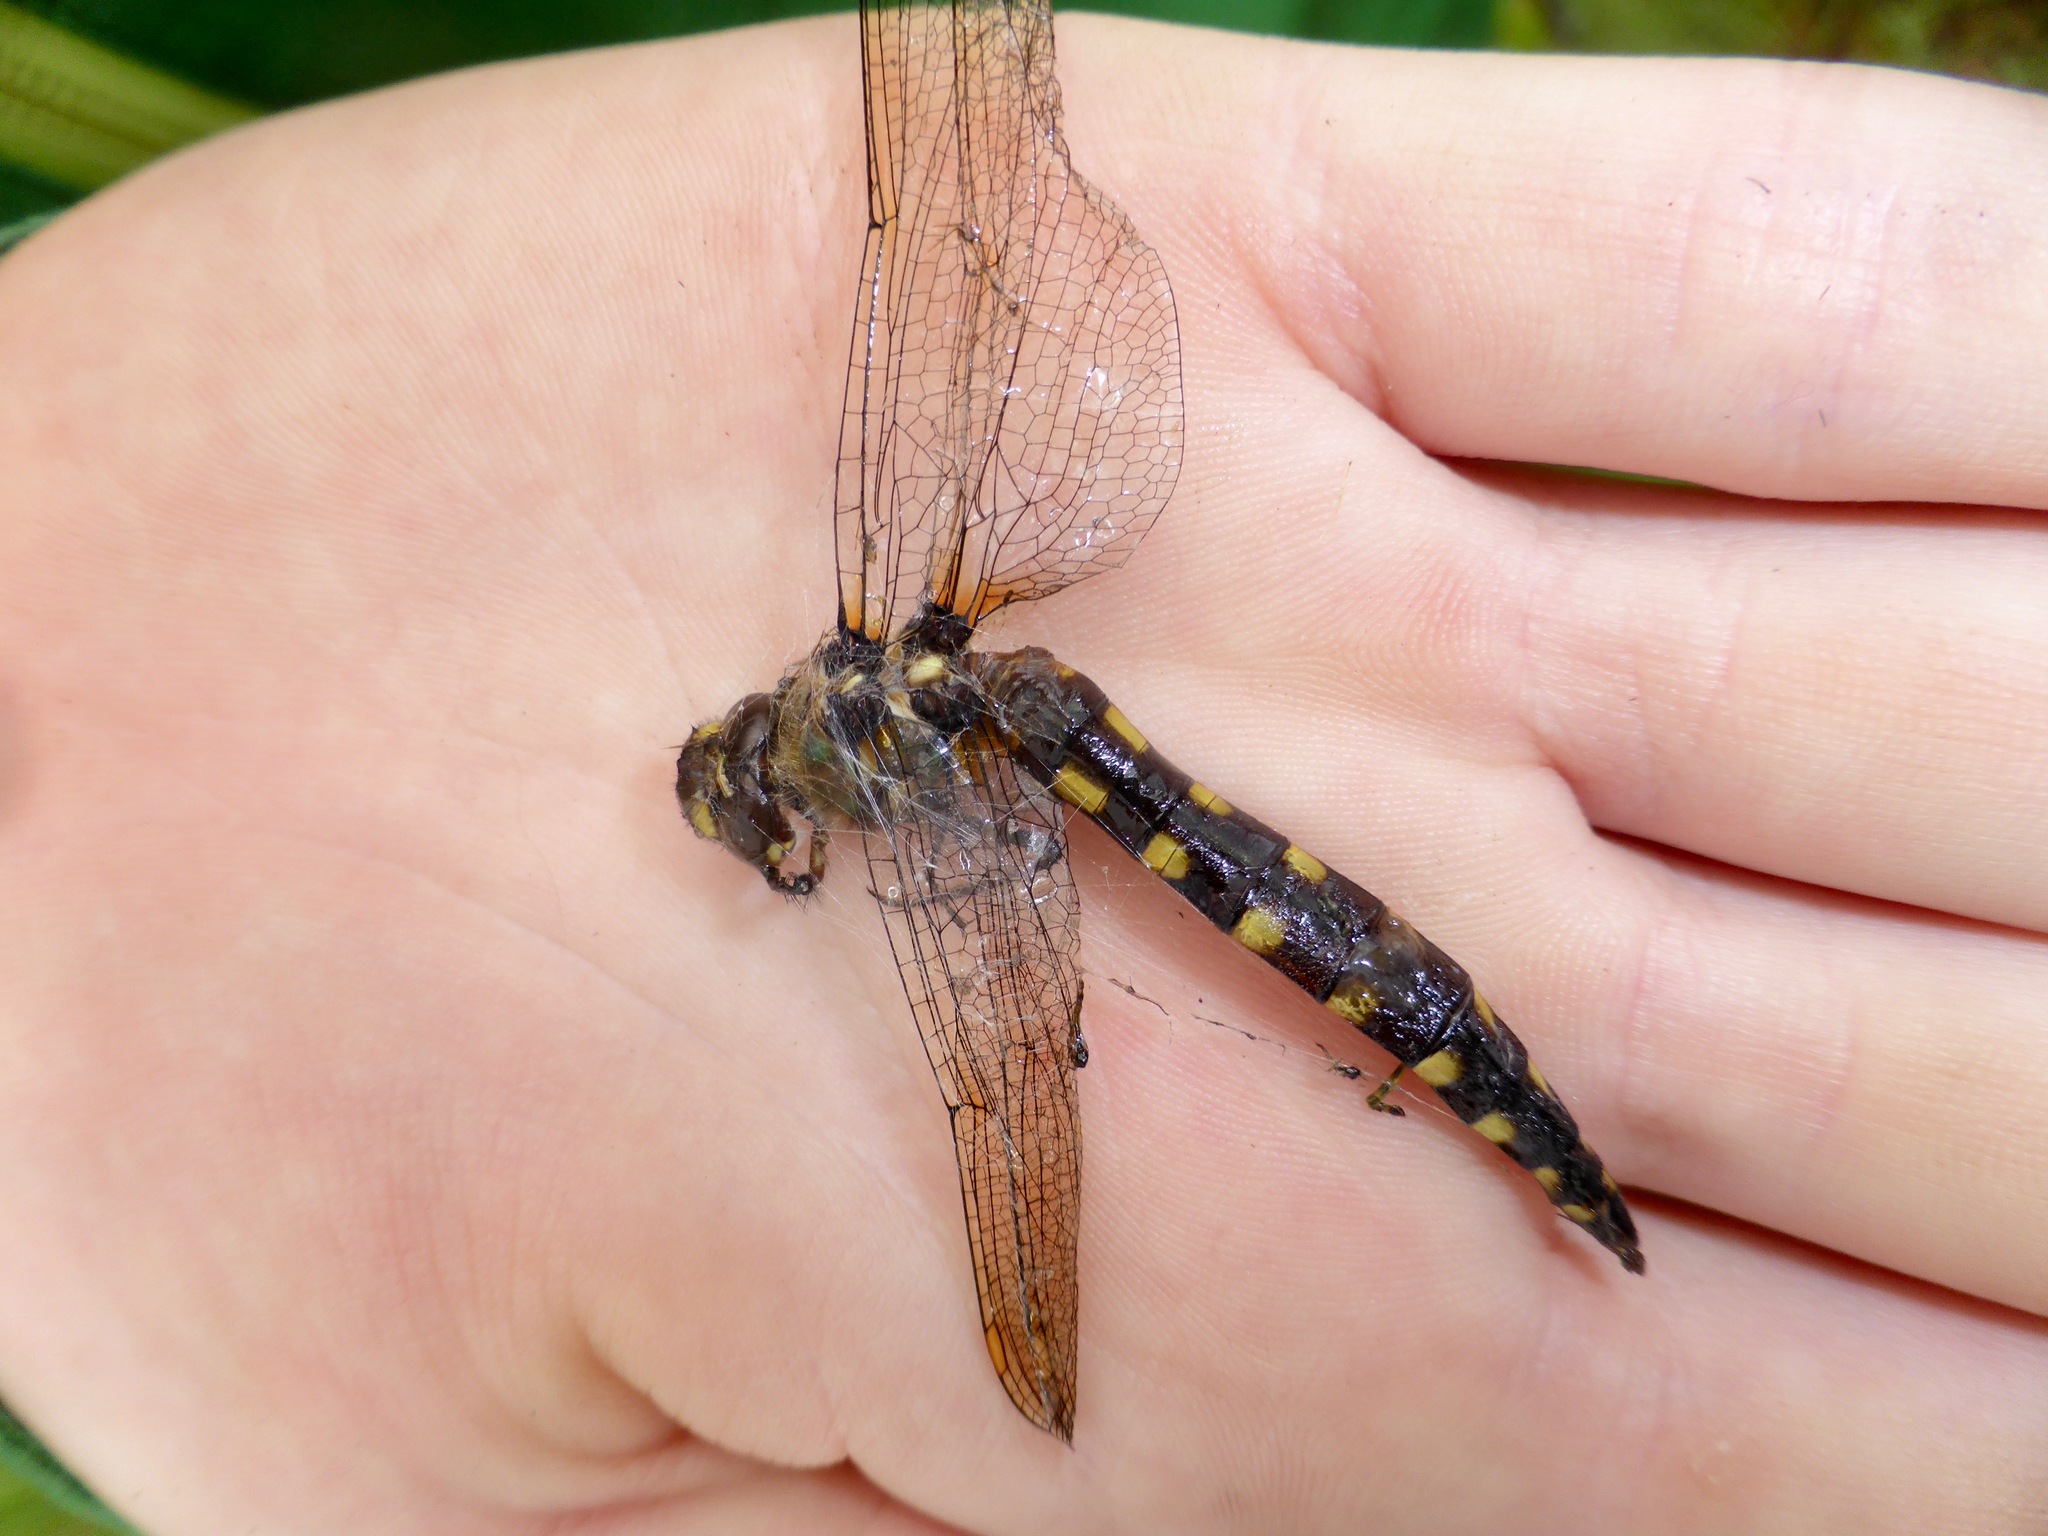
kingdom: Animalia
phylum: Arthropoda
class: Insecta
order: Odonata
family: Corduliidae
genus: Procordulia
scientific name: Procordulia grayi
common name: Yellow spotted dragonfly
